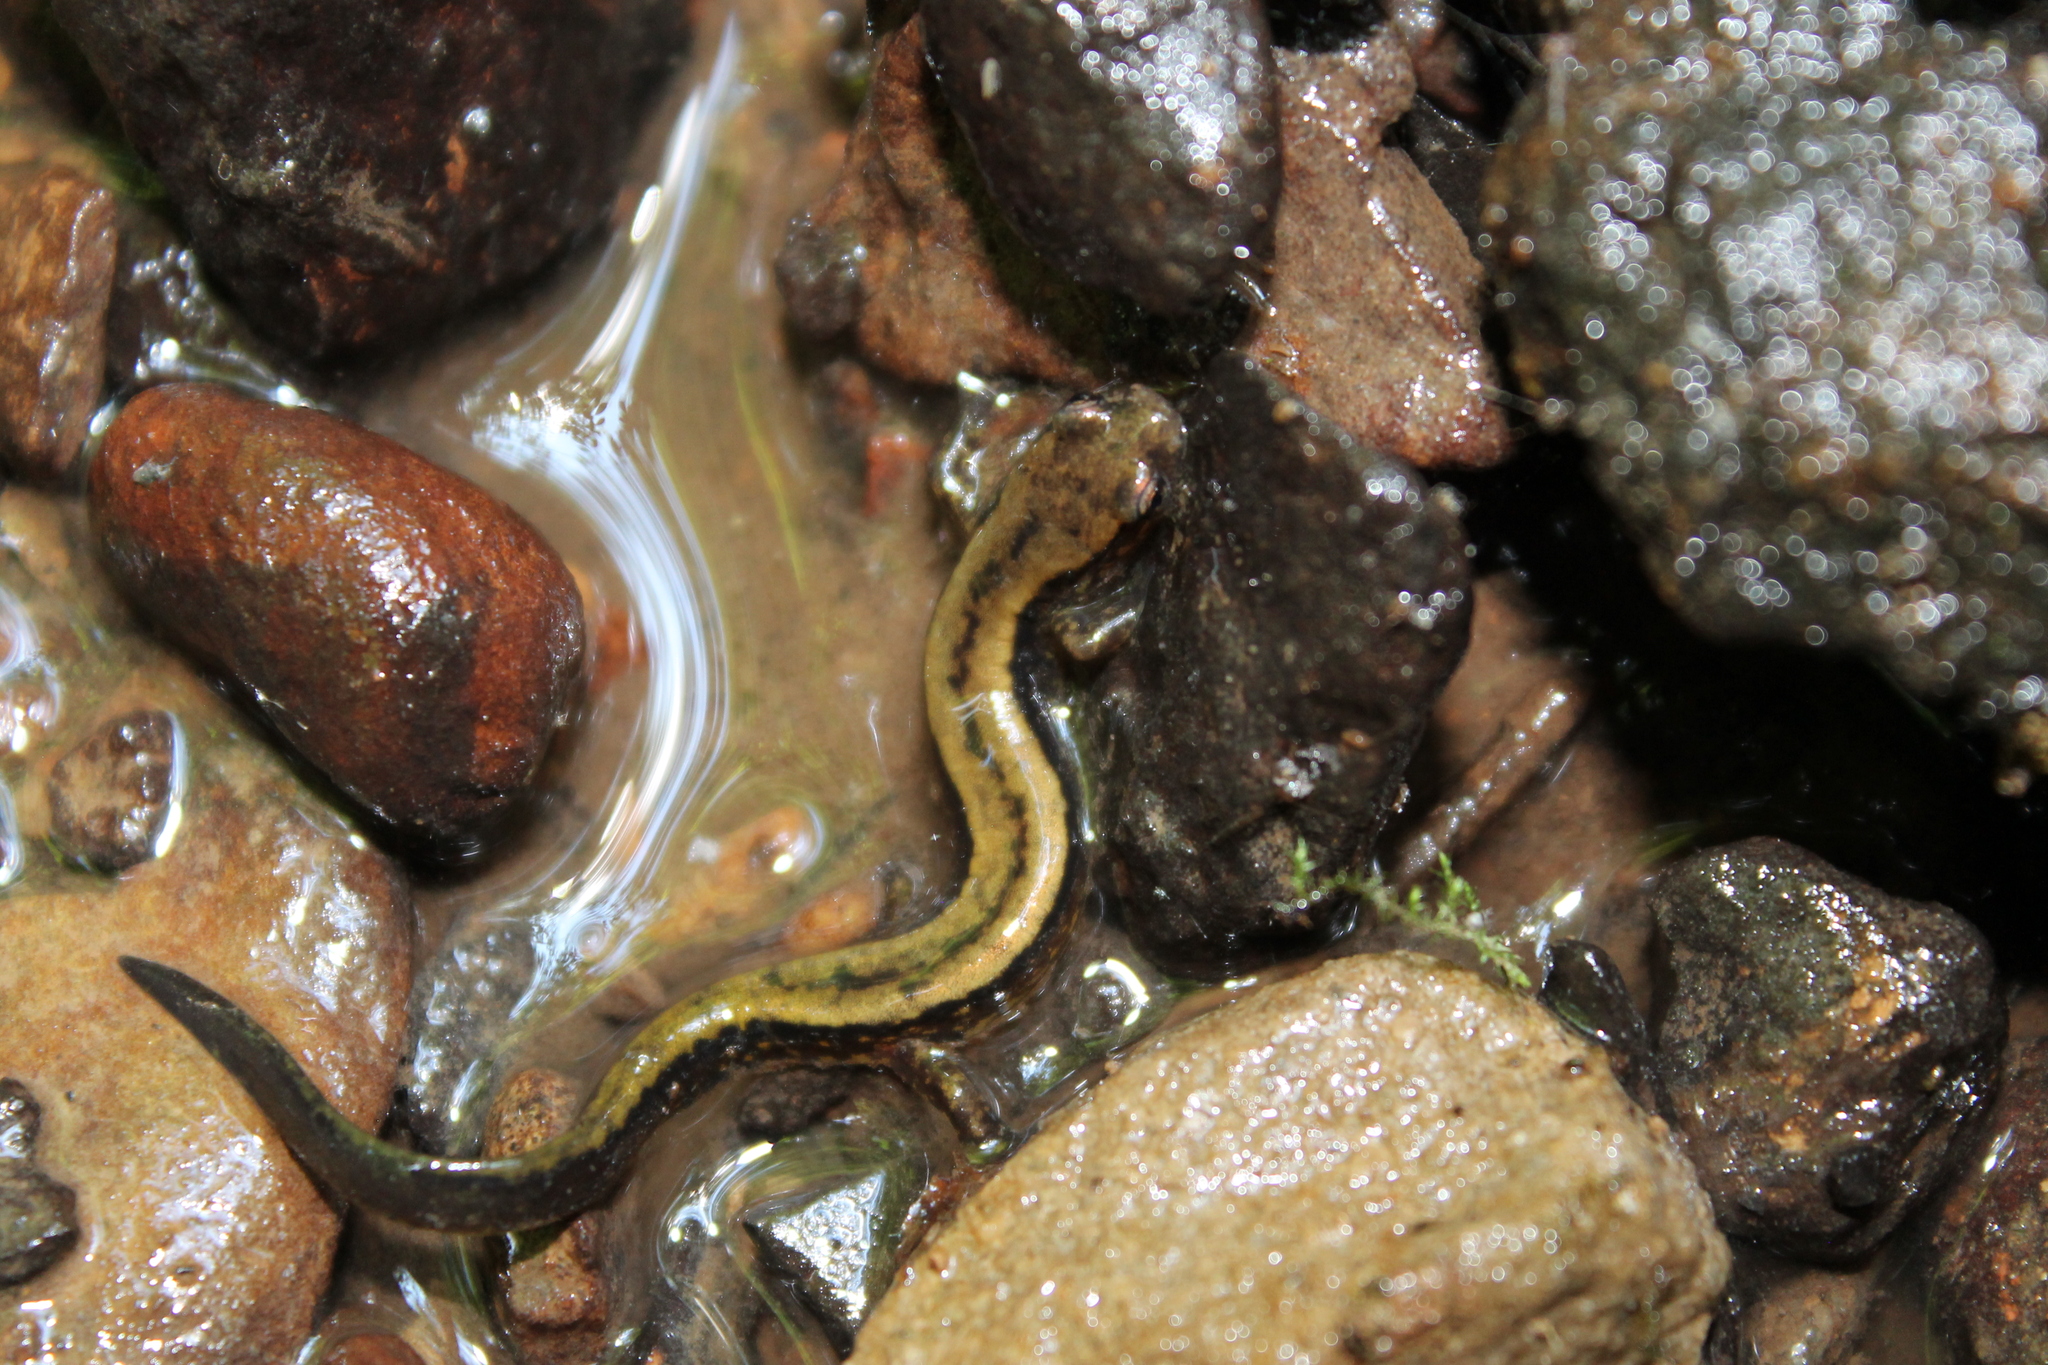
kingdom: Animalia
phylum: Chordata
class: Amphibia
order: Caudata
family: Plethodontidae
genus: Eurycea
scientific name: Eurycea cirrigera
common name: Southern two-lined salamander
